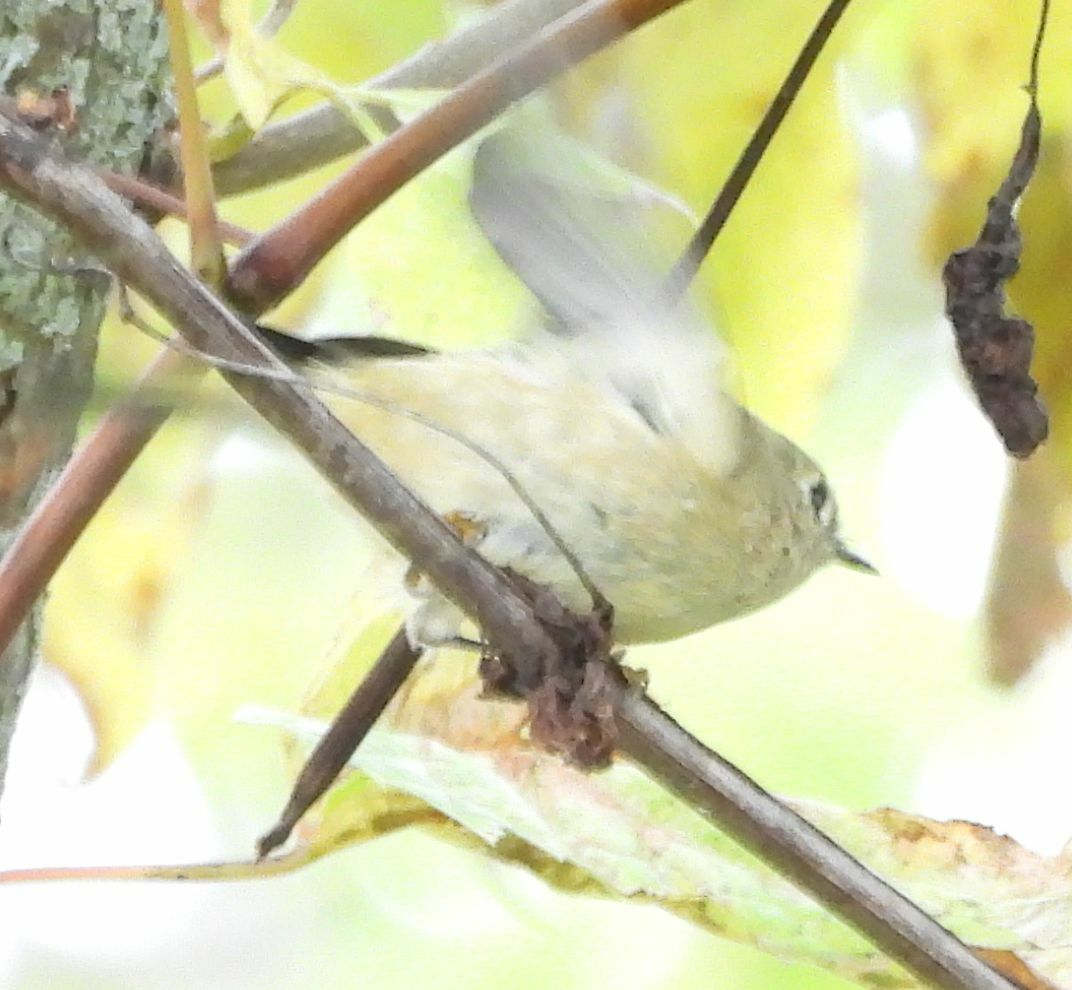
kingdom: Animalia
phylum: Chordata
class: Aves
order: Passeriformes
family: Regulidae
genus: Regulus
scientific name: Regulus calendula
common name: Ruby-crowned kinglet
